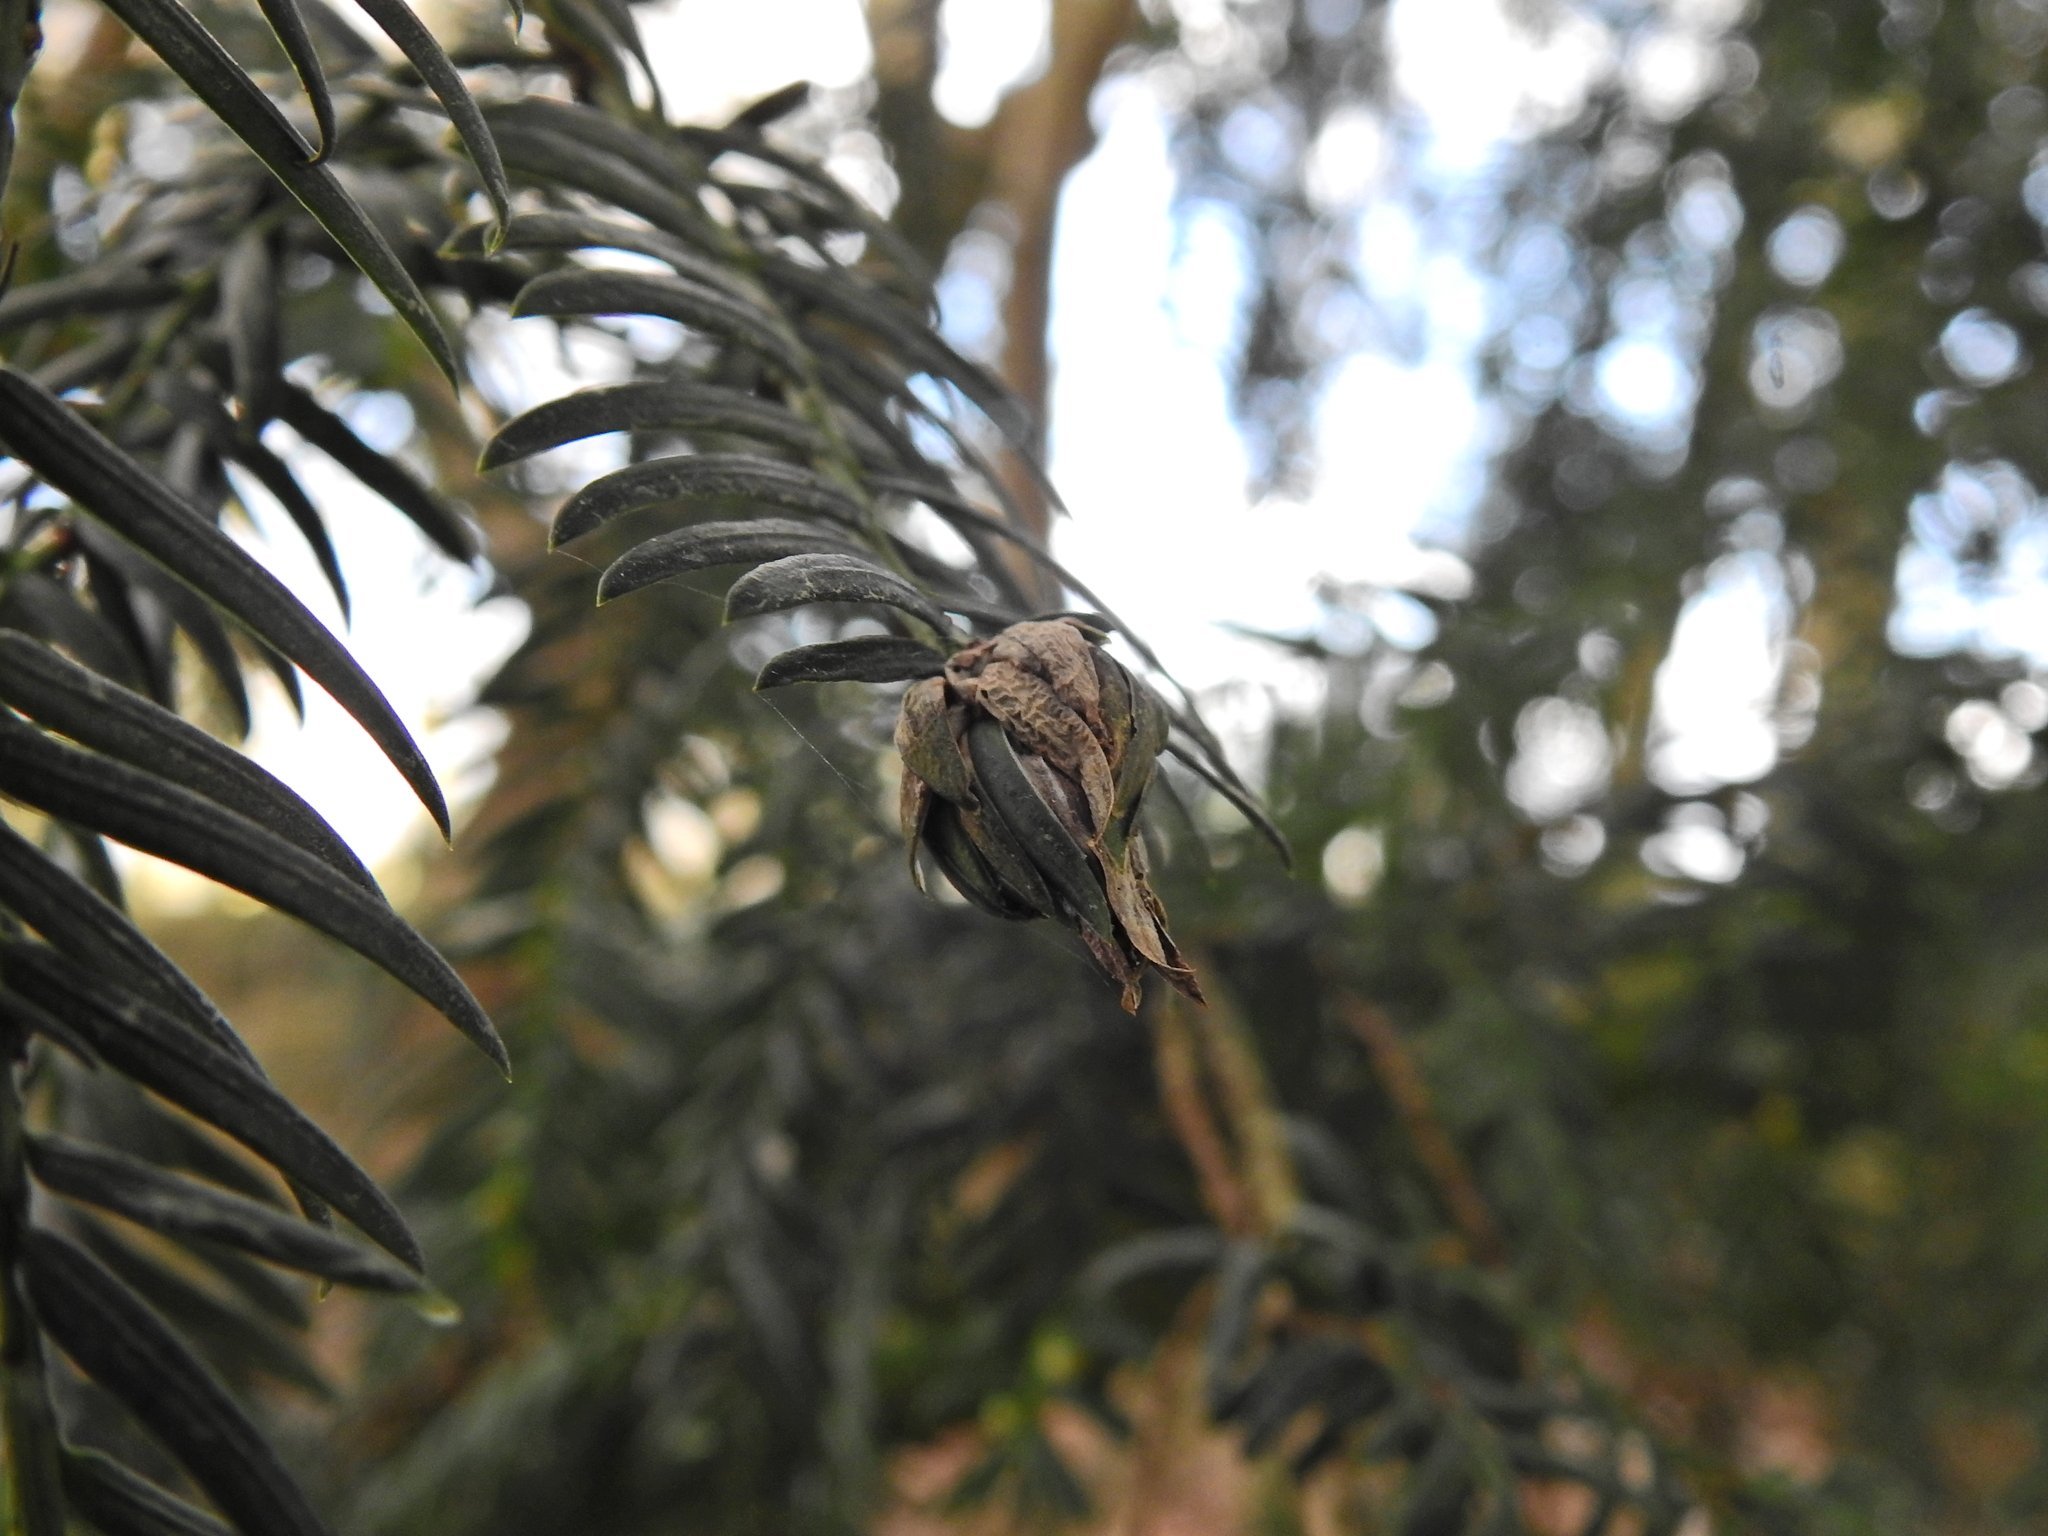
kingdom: Animalia
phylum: Arthropoda
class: Insecta
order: Diptera
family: Cecidomyiidae
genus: Taxomyia
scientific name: Taxomyia taxi
